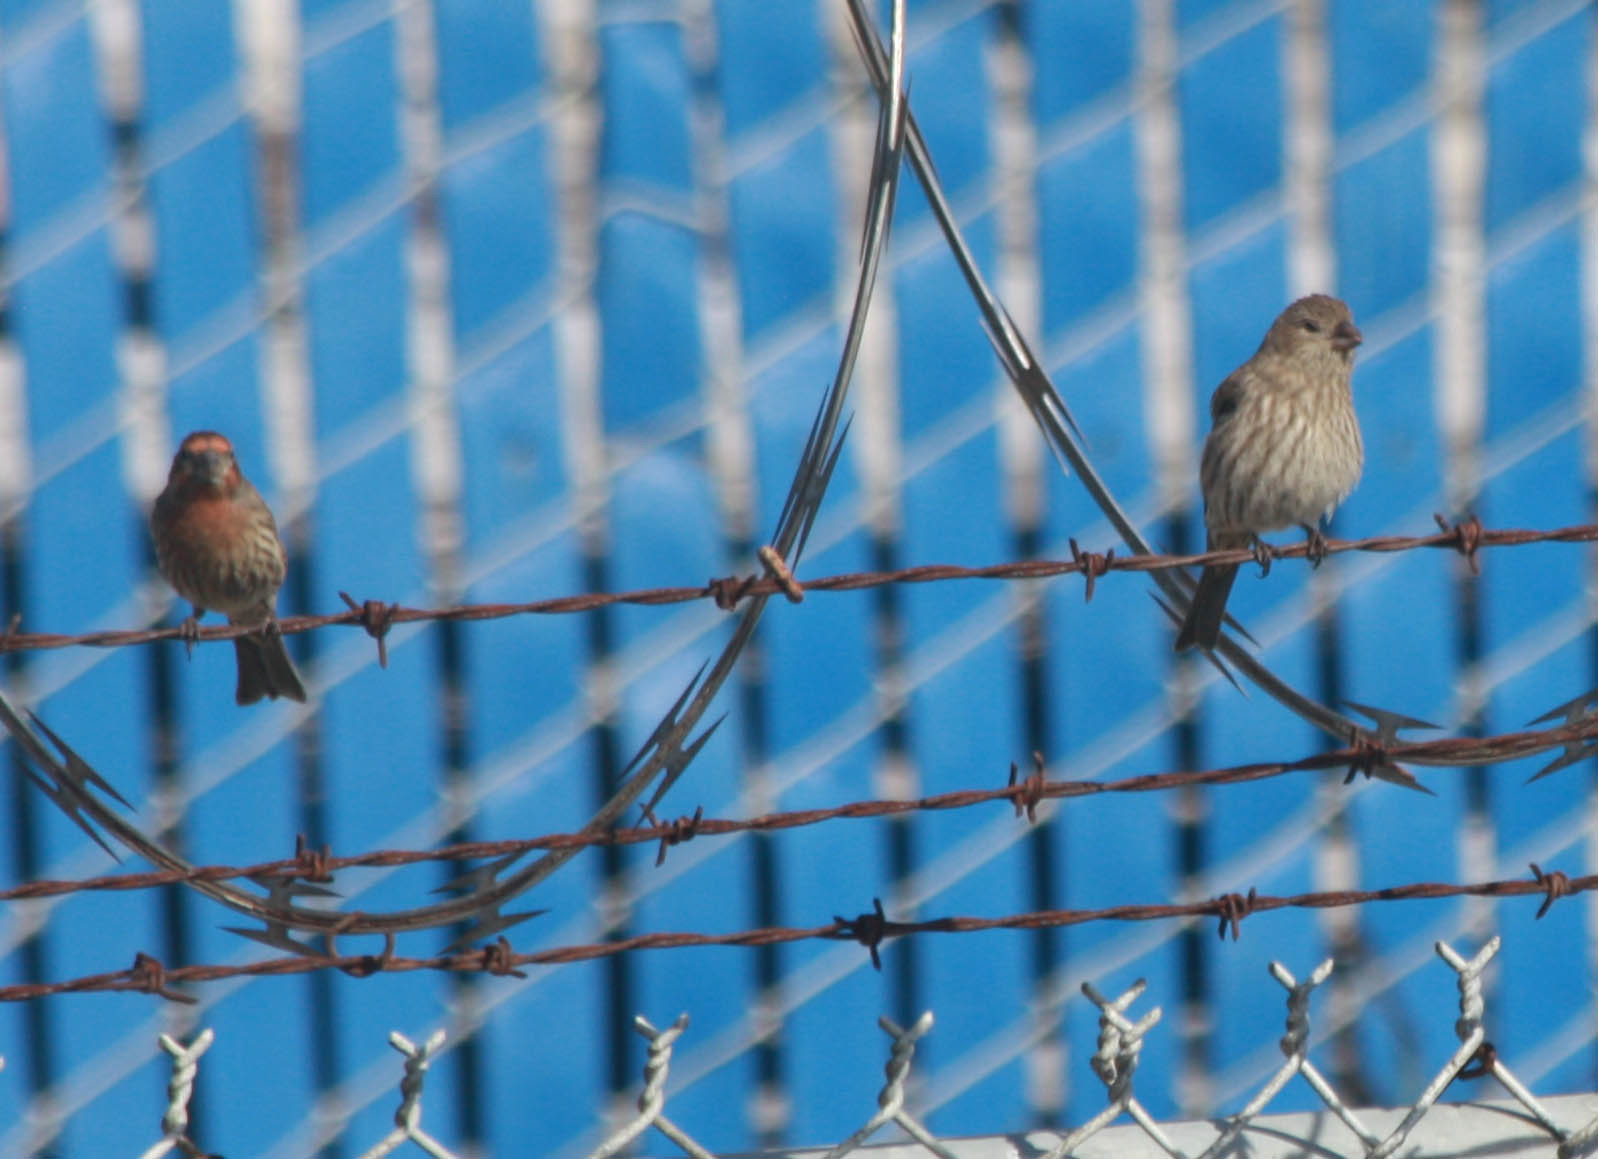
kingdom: Animalia
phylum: Chordata
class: Aves
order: Passeriformes
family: Fringillidae
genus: Haemorhous
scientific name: Haemorhous mexicanus
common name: House finch
